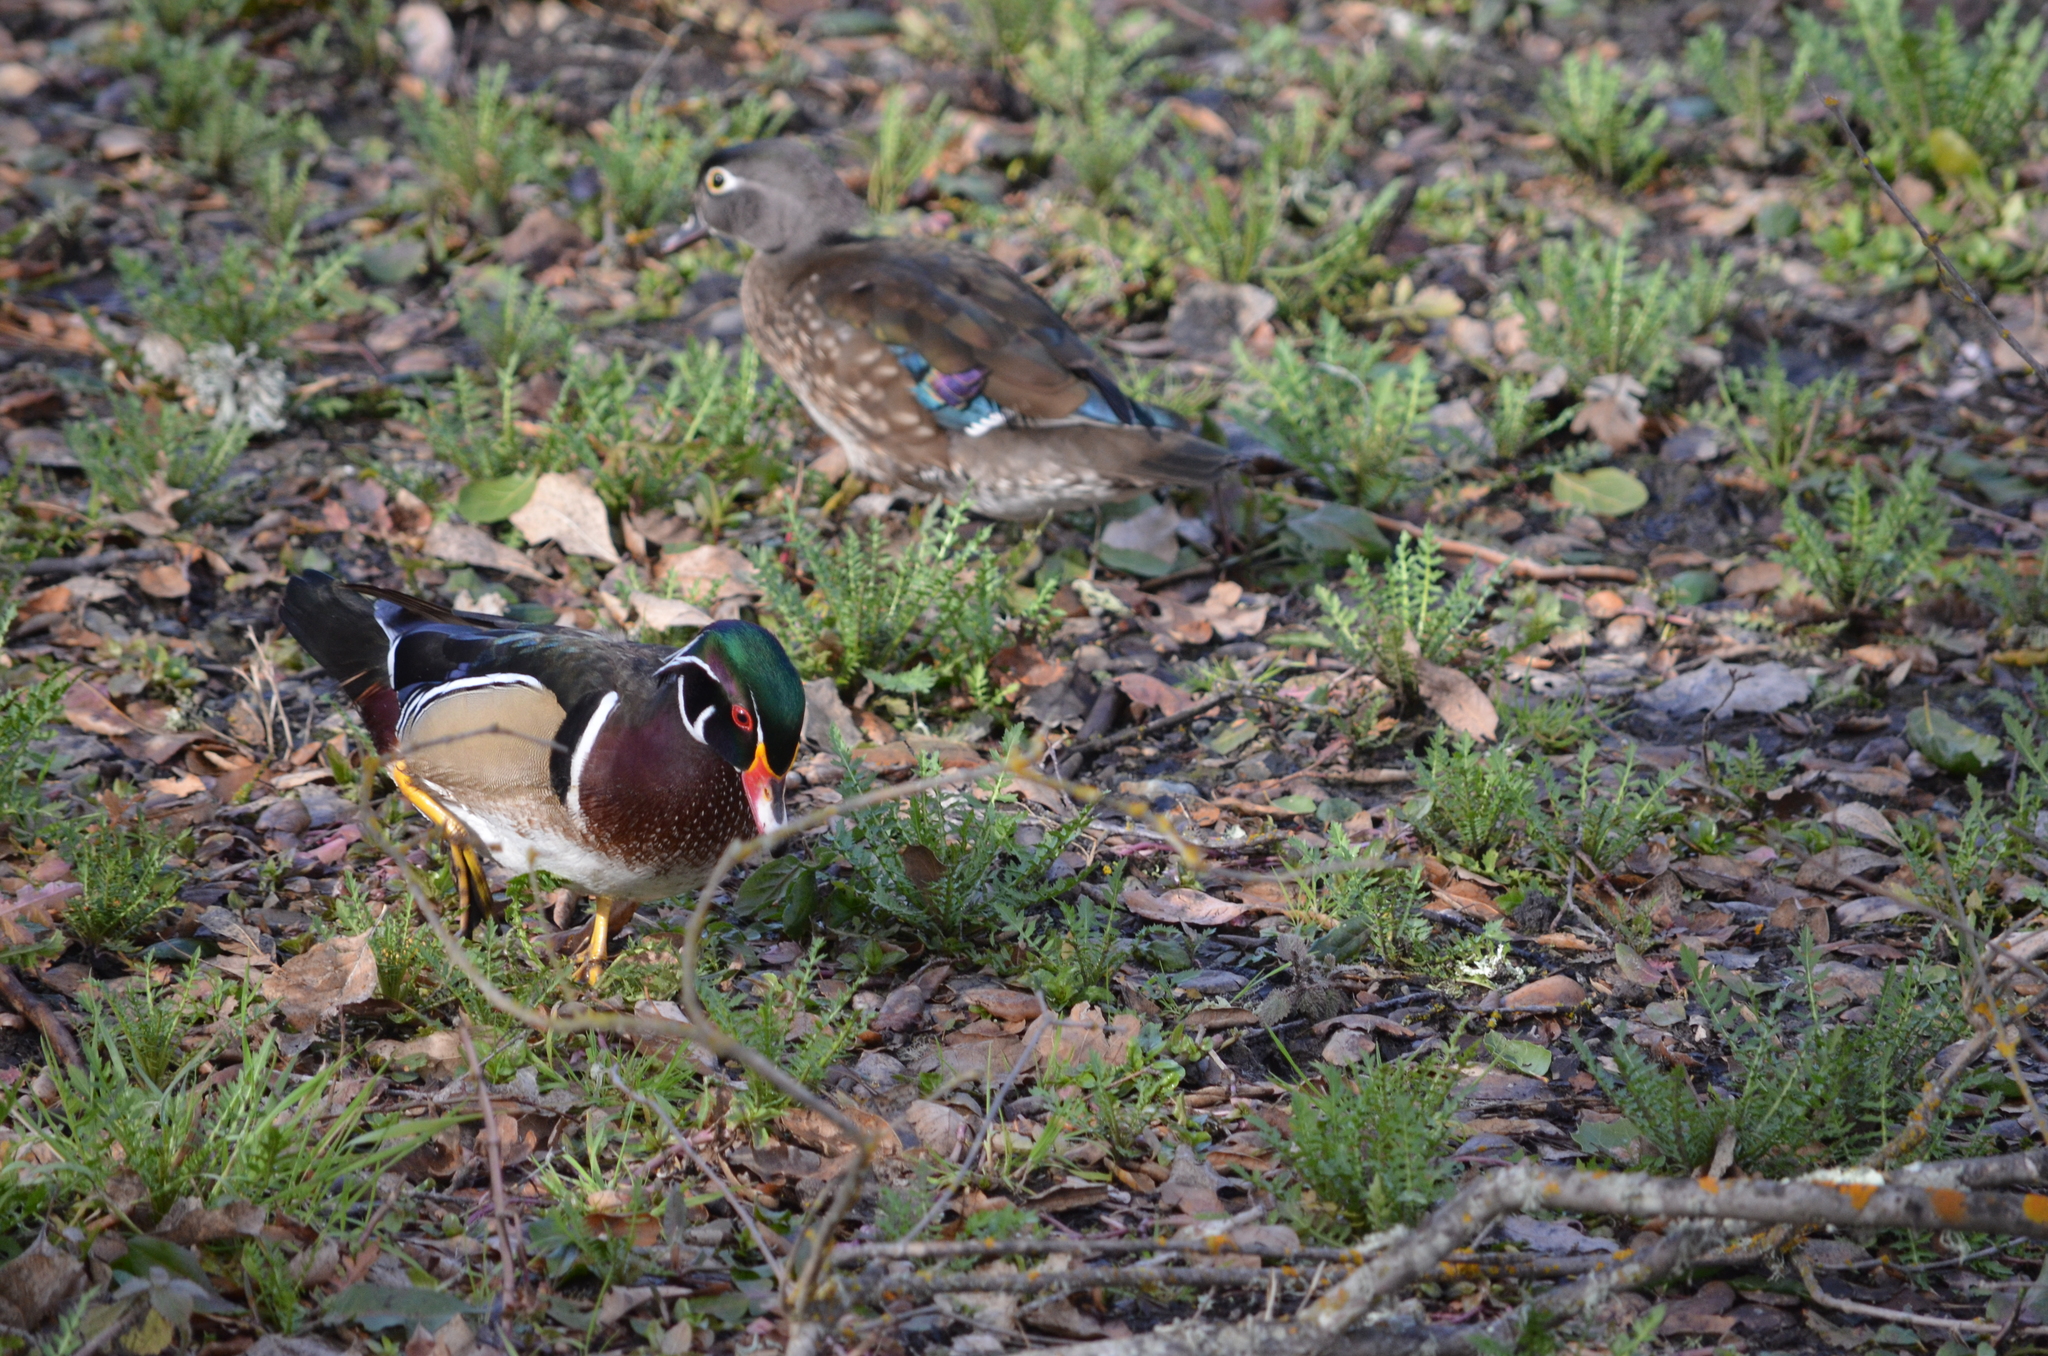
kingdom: Animalia
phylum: Chordata
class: Aves
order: Anseriformes
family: Anatidae
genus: Aix
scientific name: Aix sponsa
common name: Wood duck
